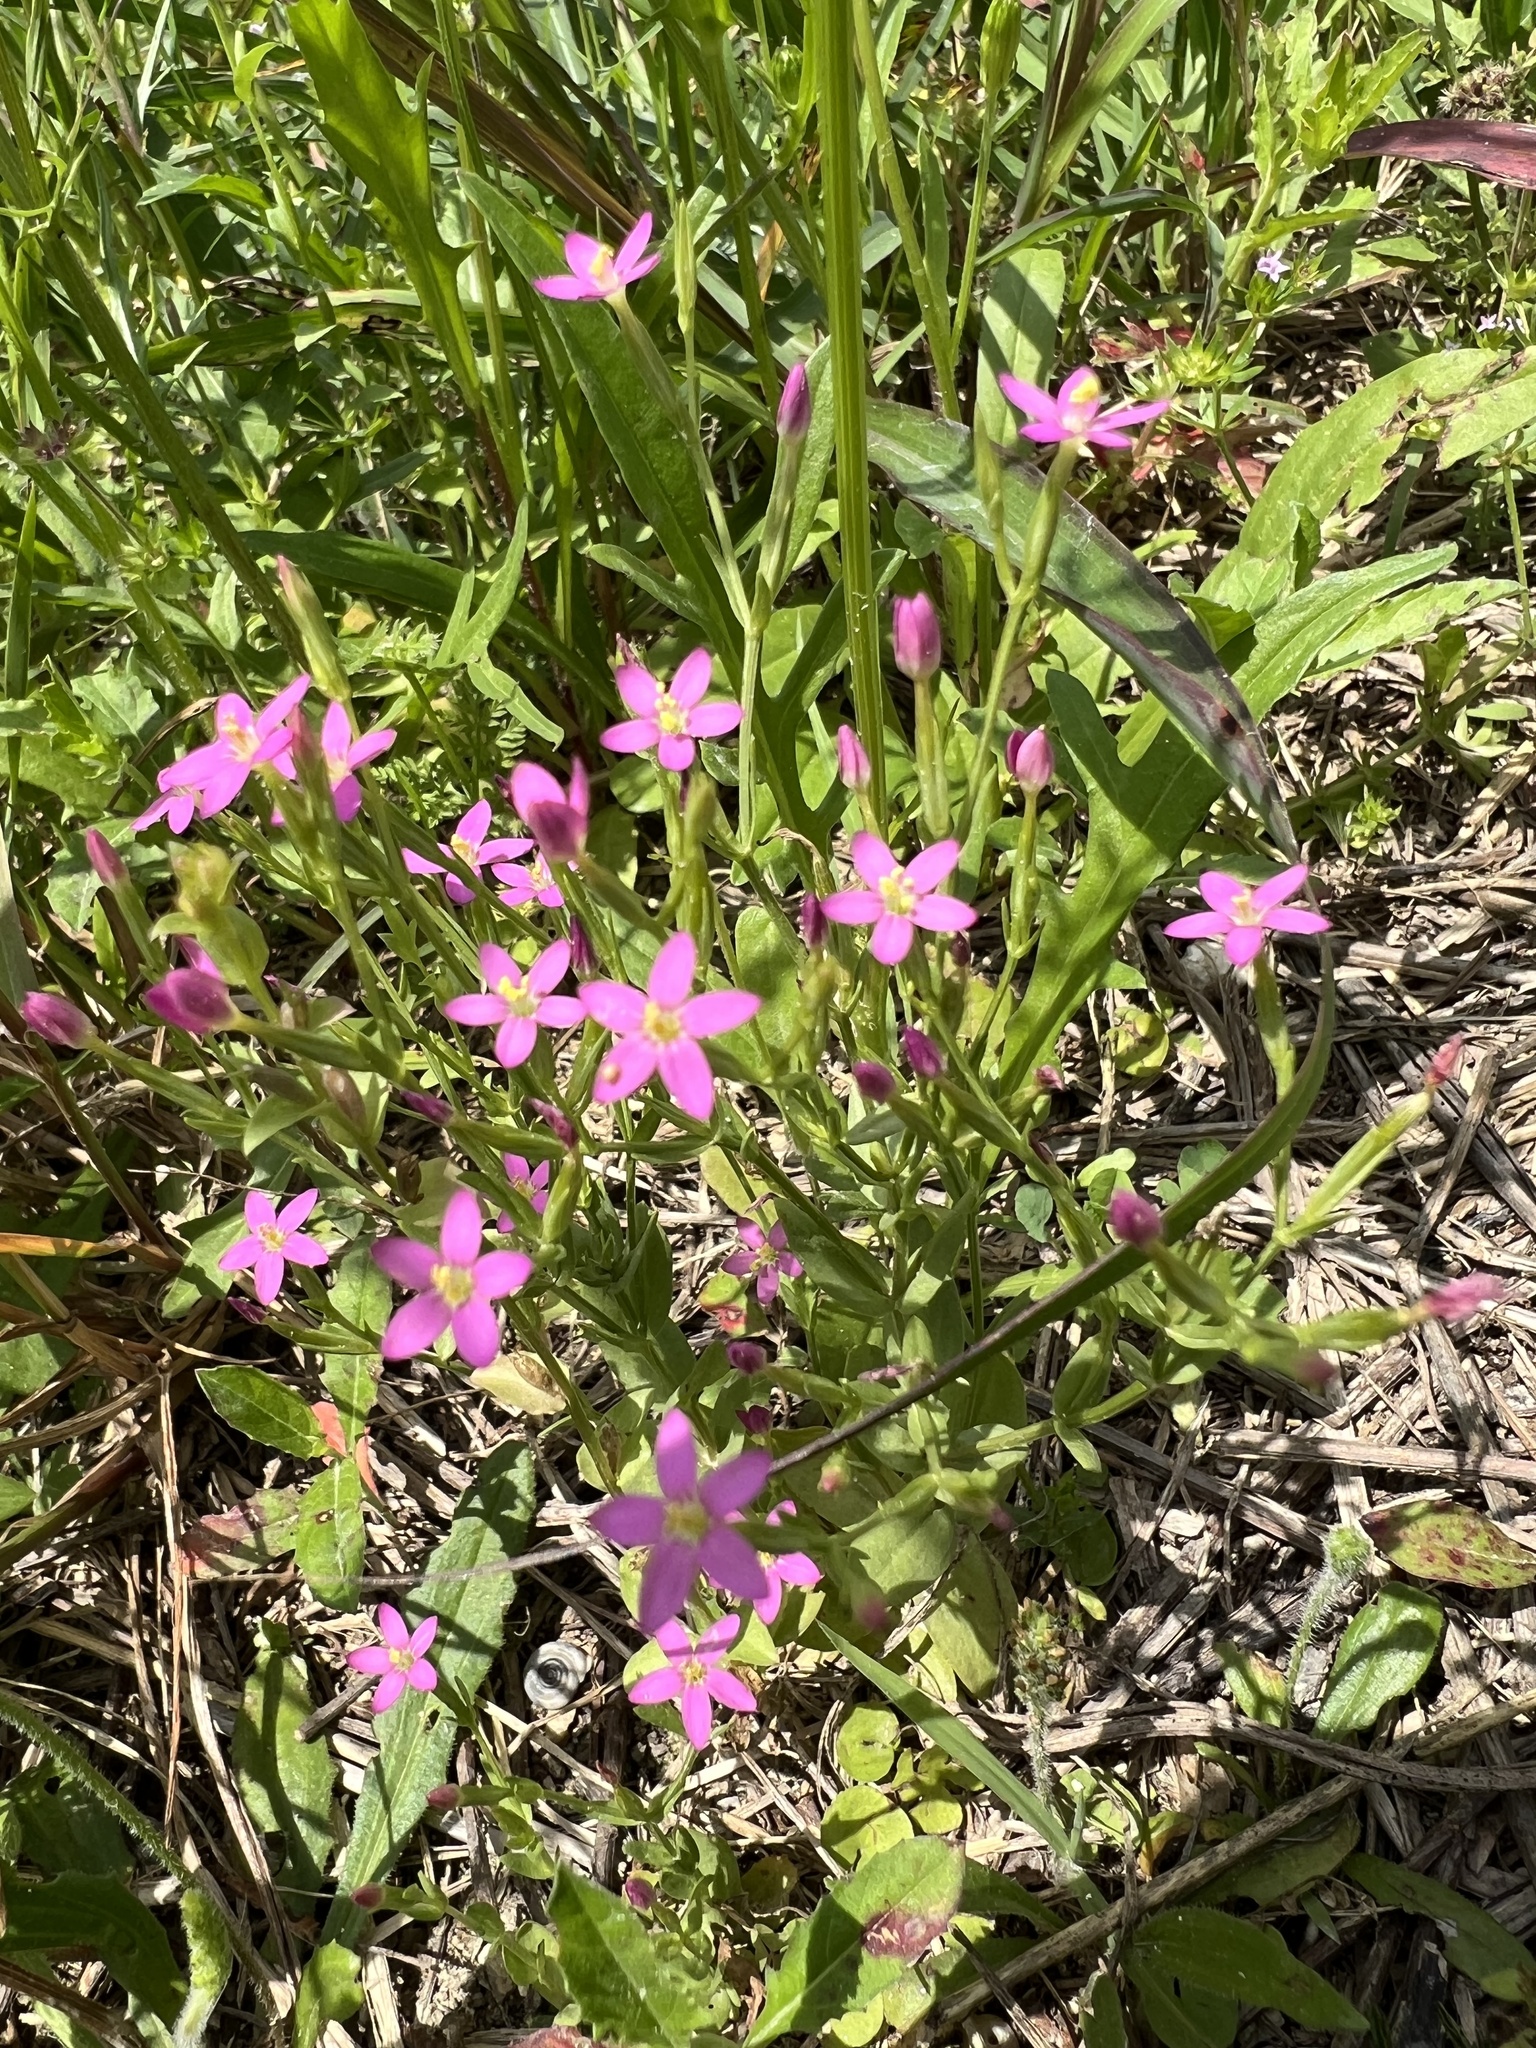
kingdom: Plantae
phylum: Tracheophyta
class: Magnoliopsida
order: Gentianales
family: Gentianaceae
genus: Centaurium
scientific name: Centaurium pulchellum
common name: Lesser centaury
